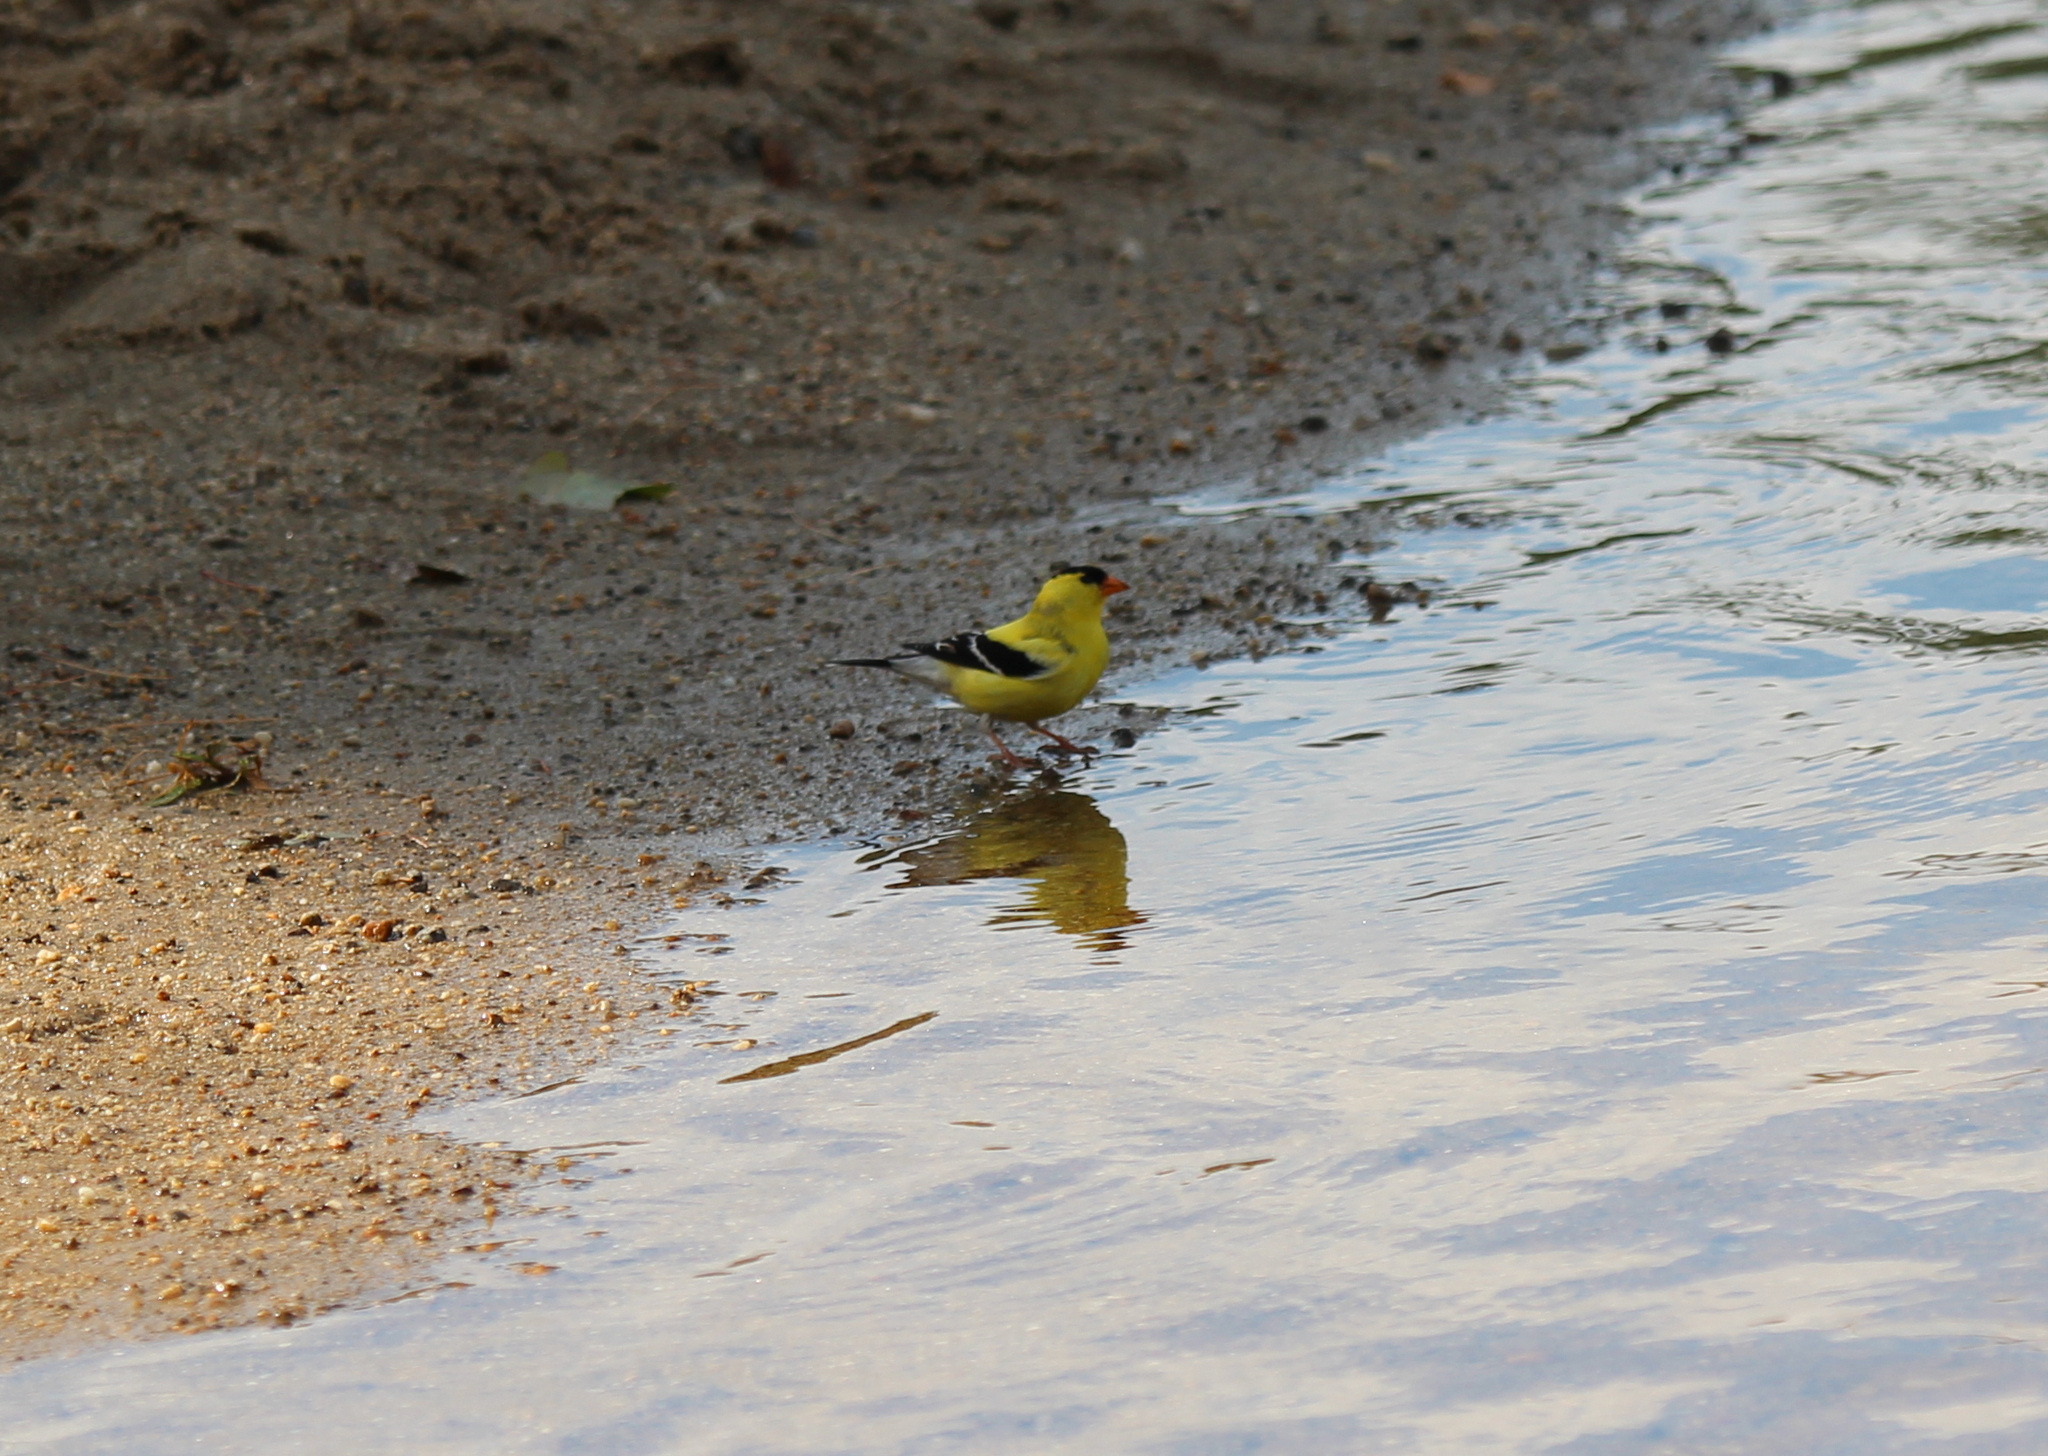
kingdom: Animalia
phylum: Chordata
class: Aves
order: Passeriformes
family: Fringillidae
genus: Spinus
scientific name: Spinus tristis
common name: American goldfinch
